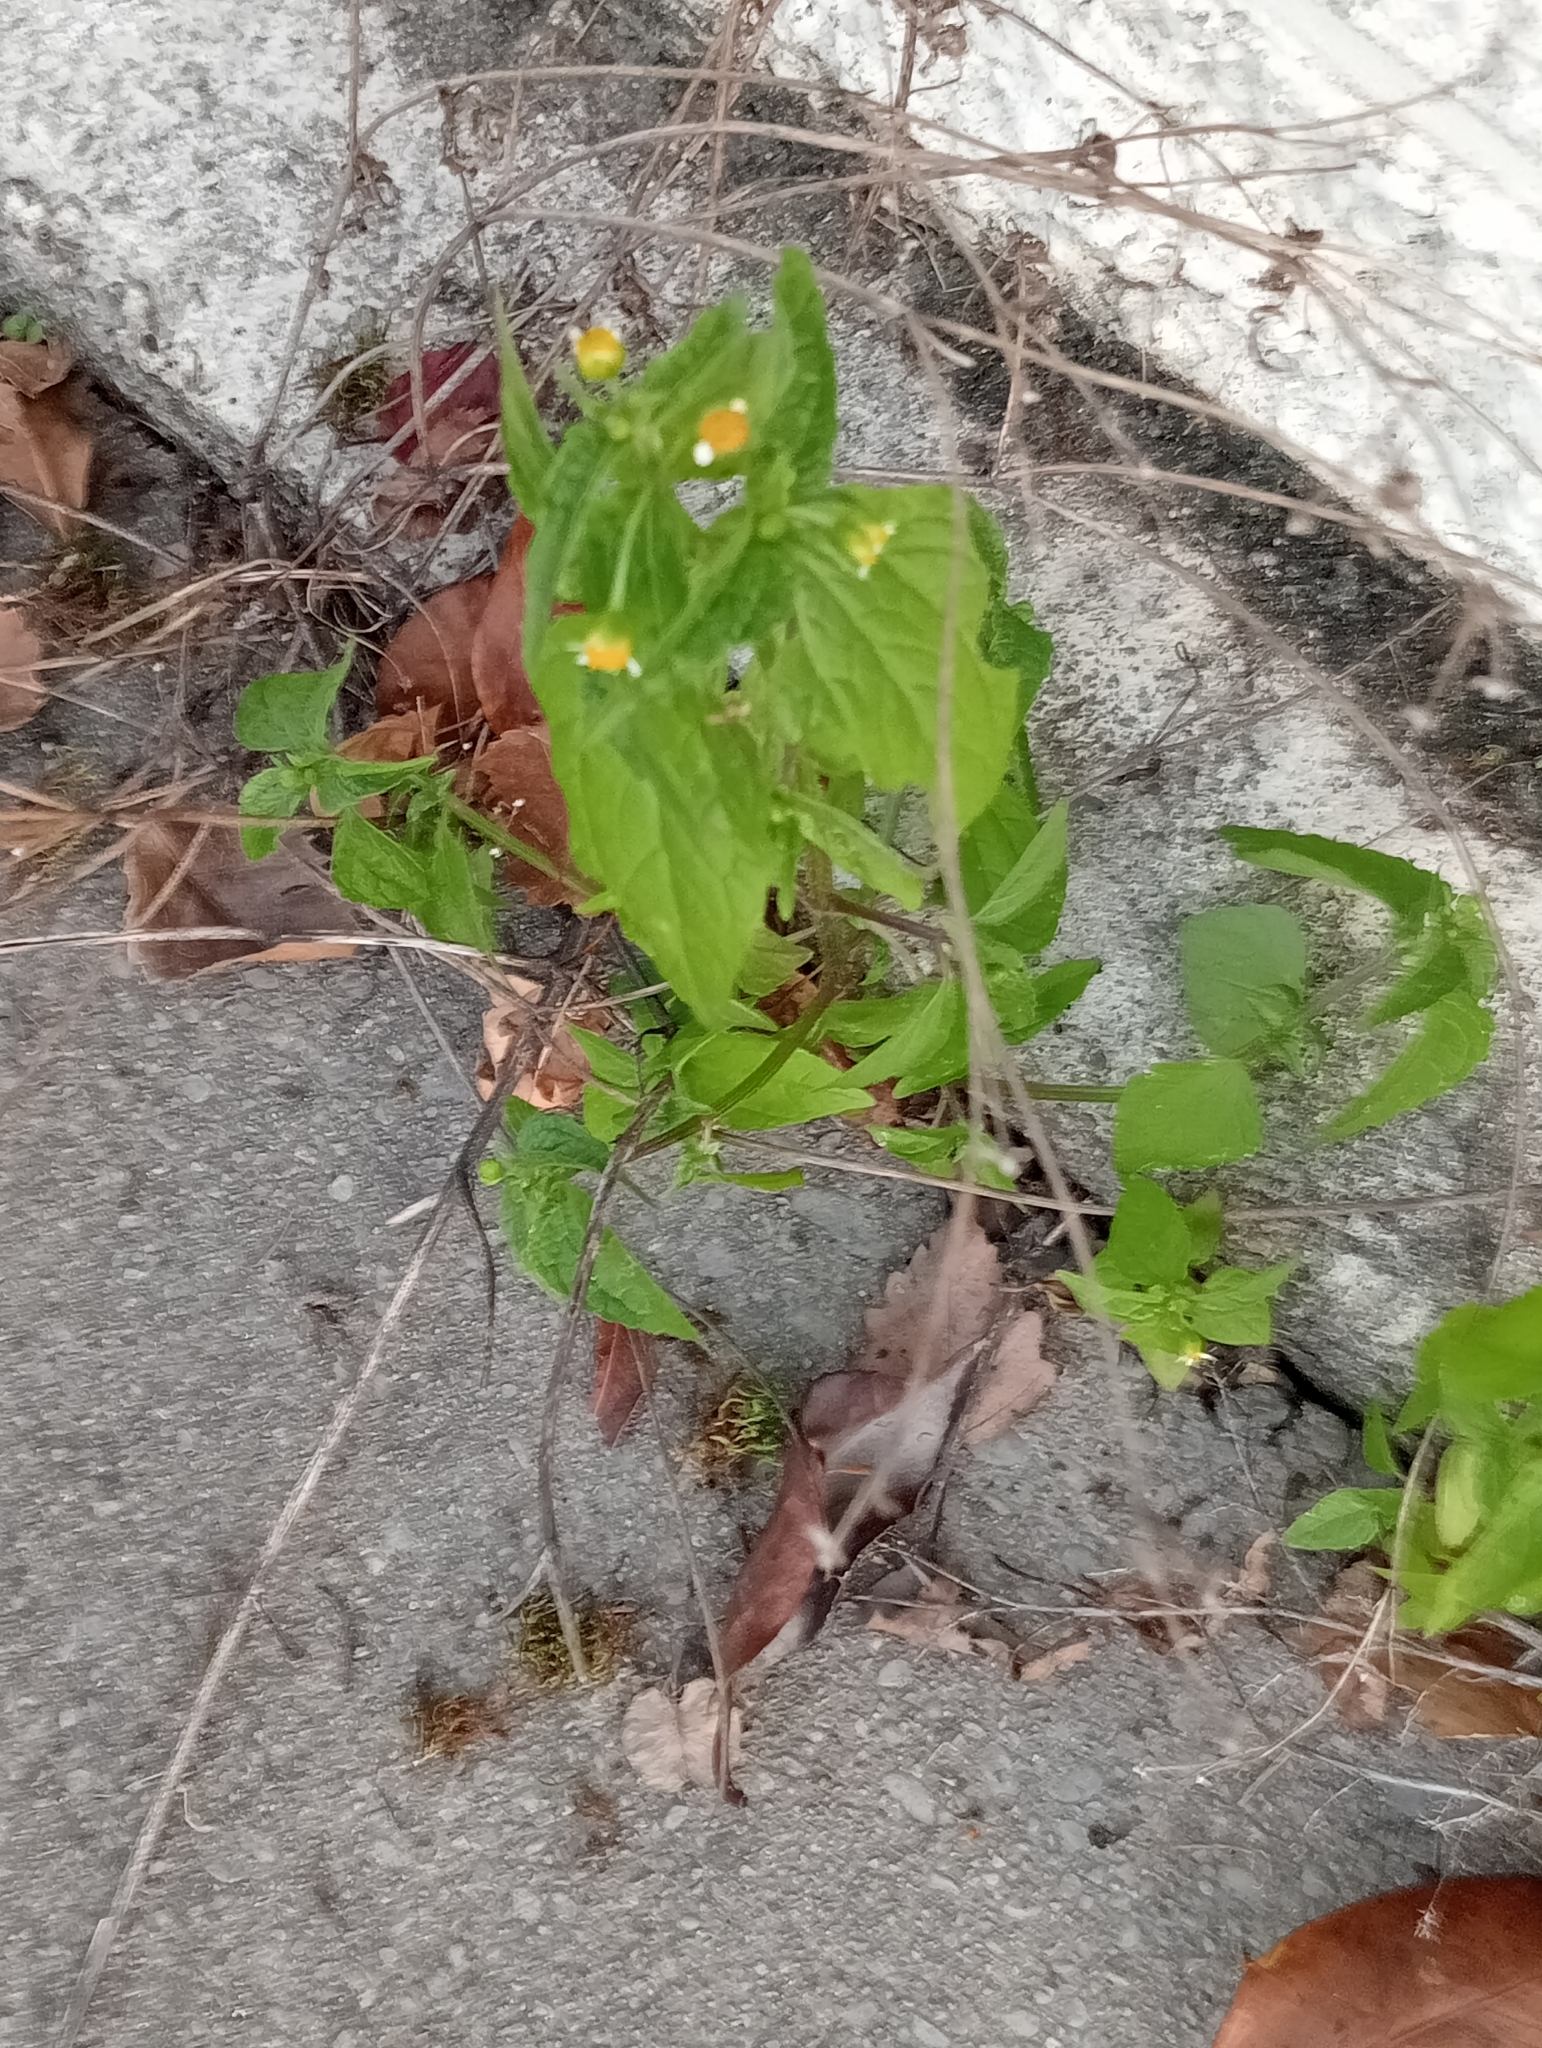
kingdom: Plantae
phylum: Tracheophyta
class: Magnoliopsida
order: Asterales
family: Asteraceae
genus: Galinsoga
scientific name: Galinsoga parviflora
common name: Gallant soldier
